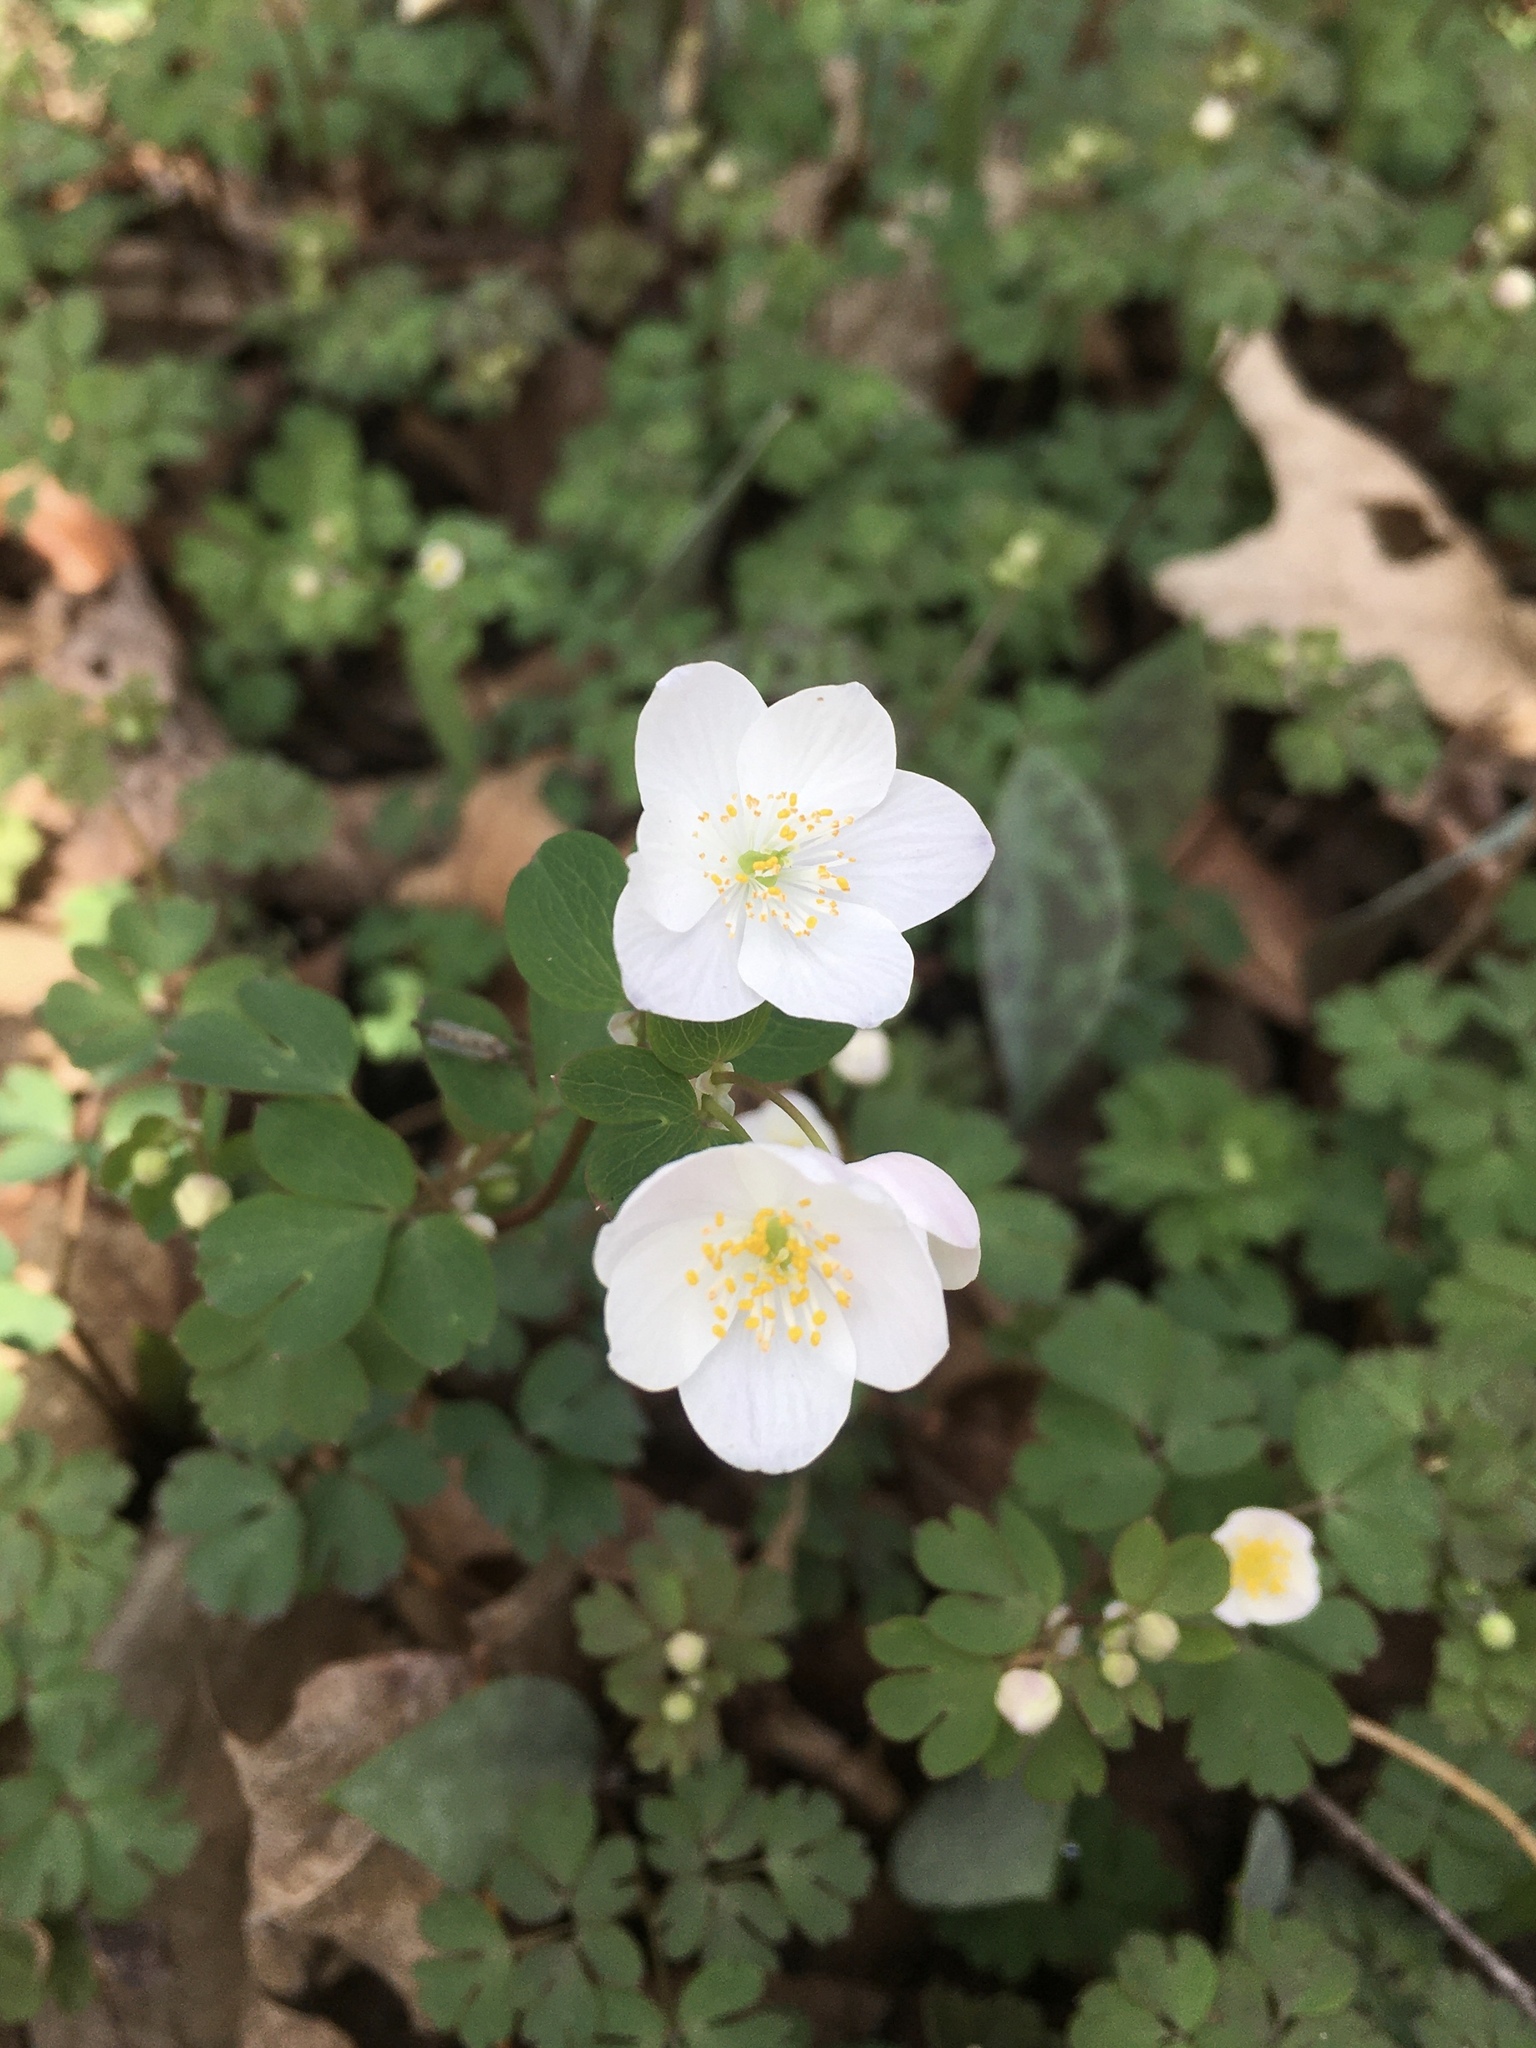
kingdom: Plantae
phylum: Tracheophyta
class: Magnoliopsida
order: Ranunculales
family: Ranunculaceae
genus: Enemion
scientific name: Enemion biternatum
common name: Eastern false rue-anemone
